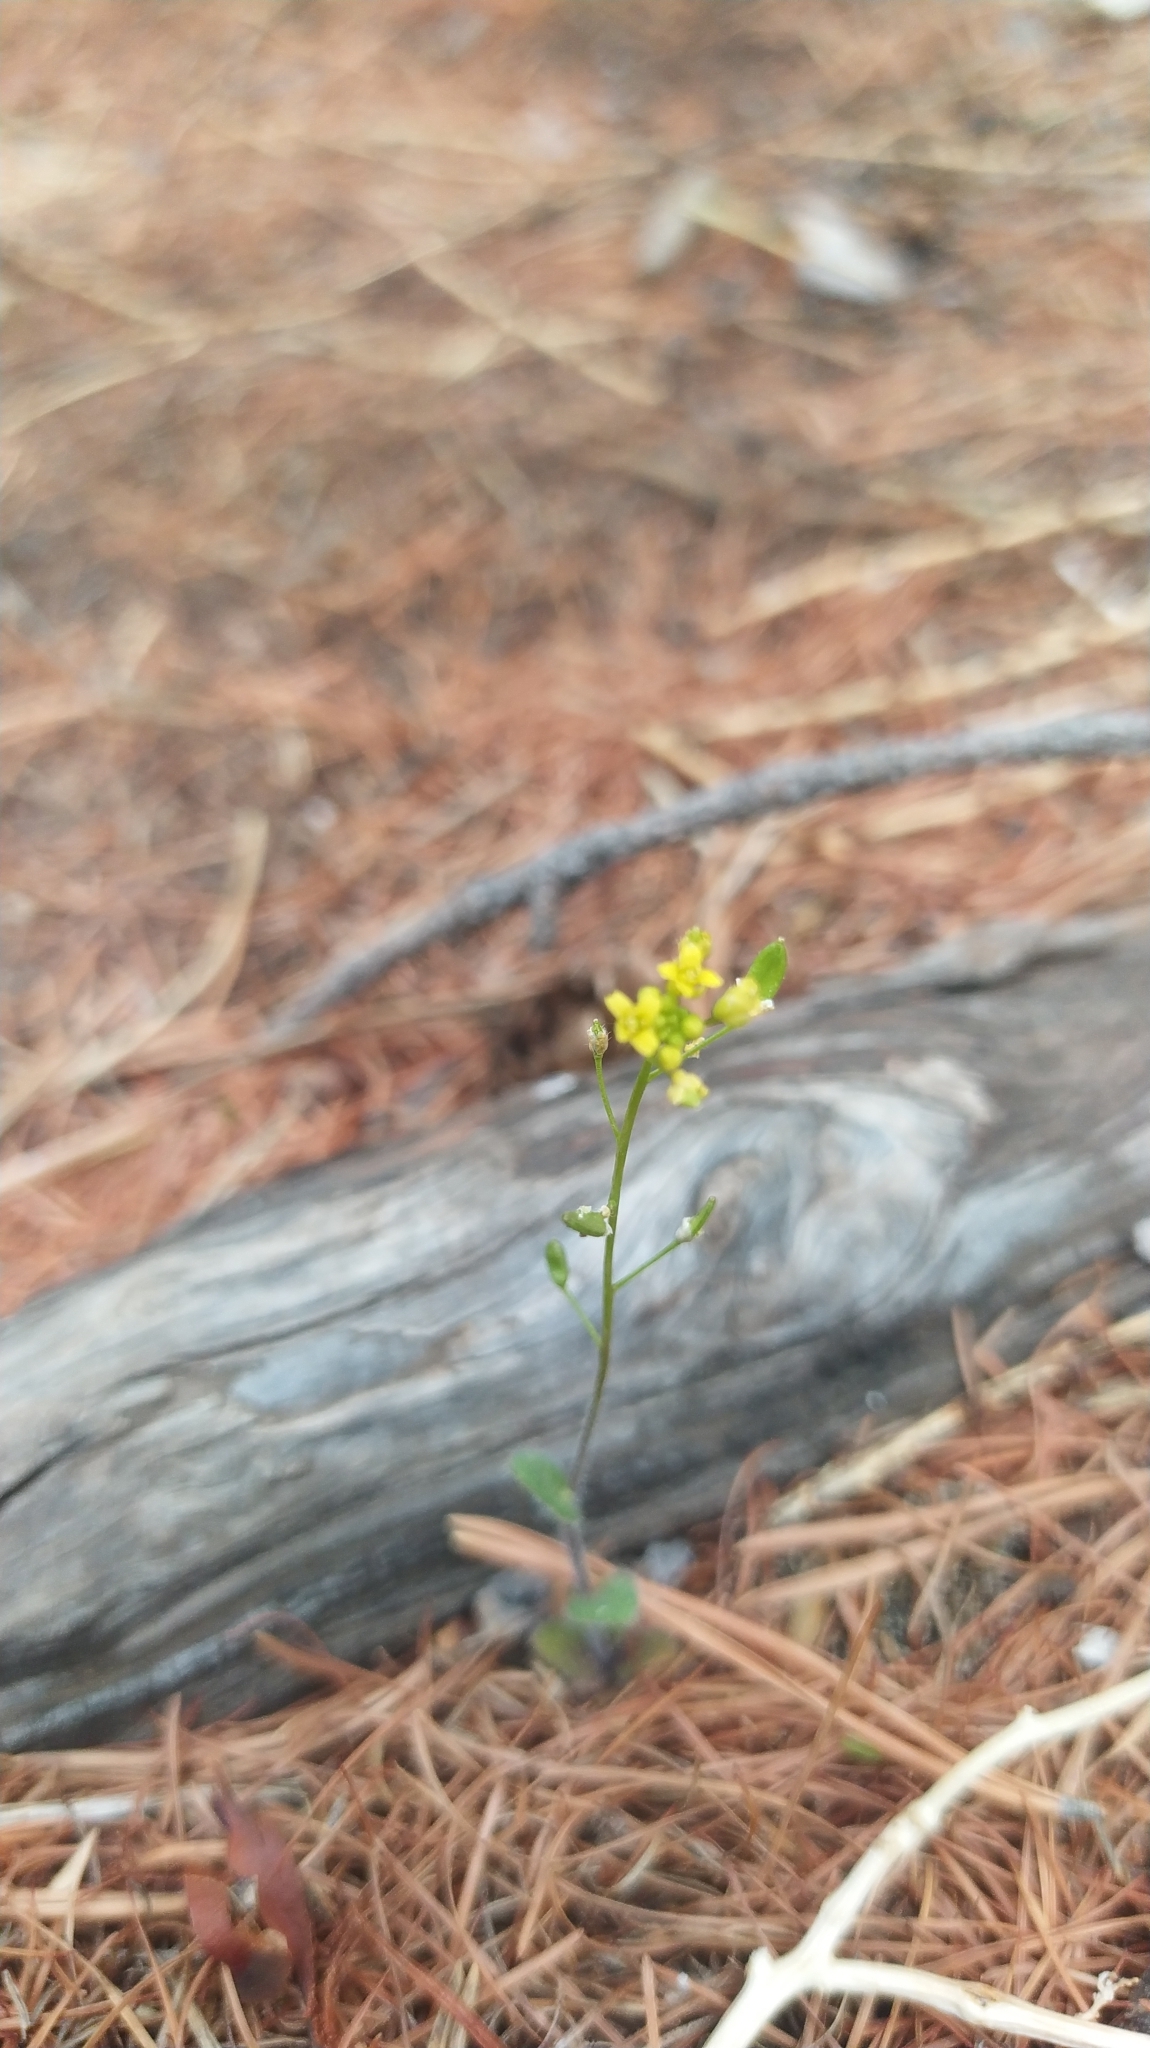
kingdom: Plantae
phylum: Tracheophyta
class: Magnoliopsida
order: Brassicales
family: Brassicaceae
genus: Draba
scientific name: Draba nemorosa
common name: Wood whitlow-grass
